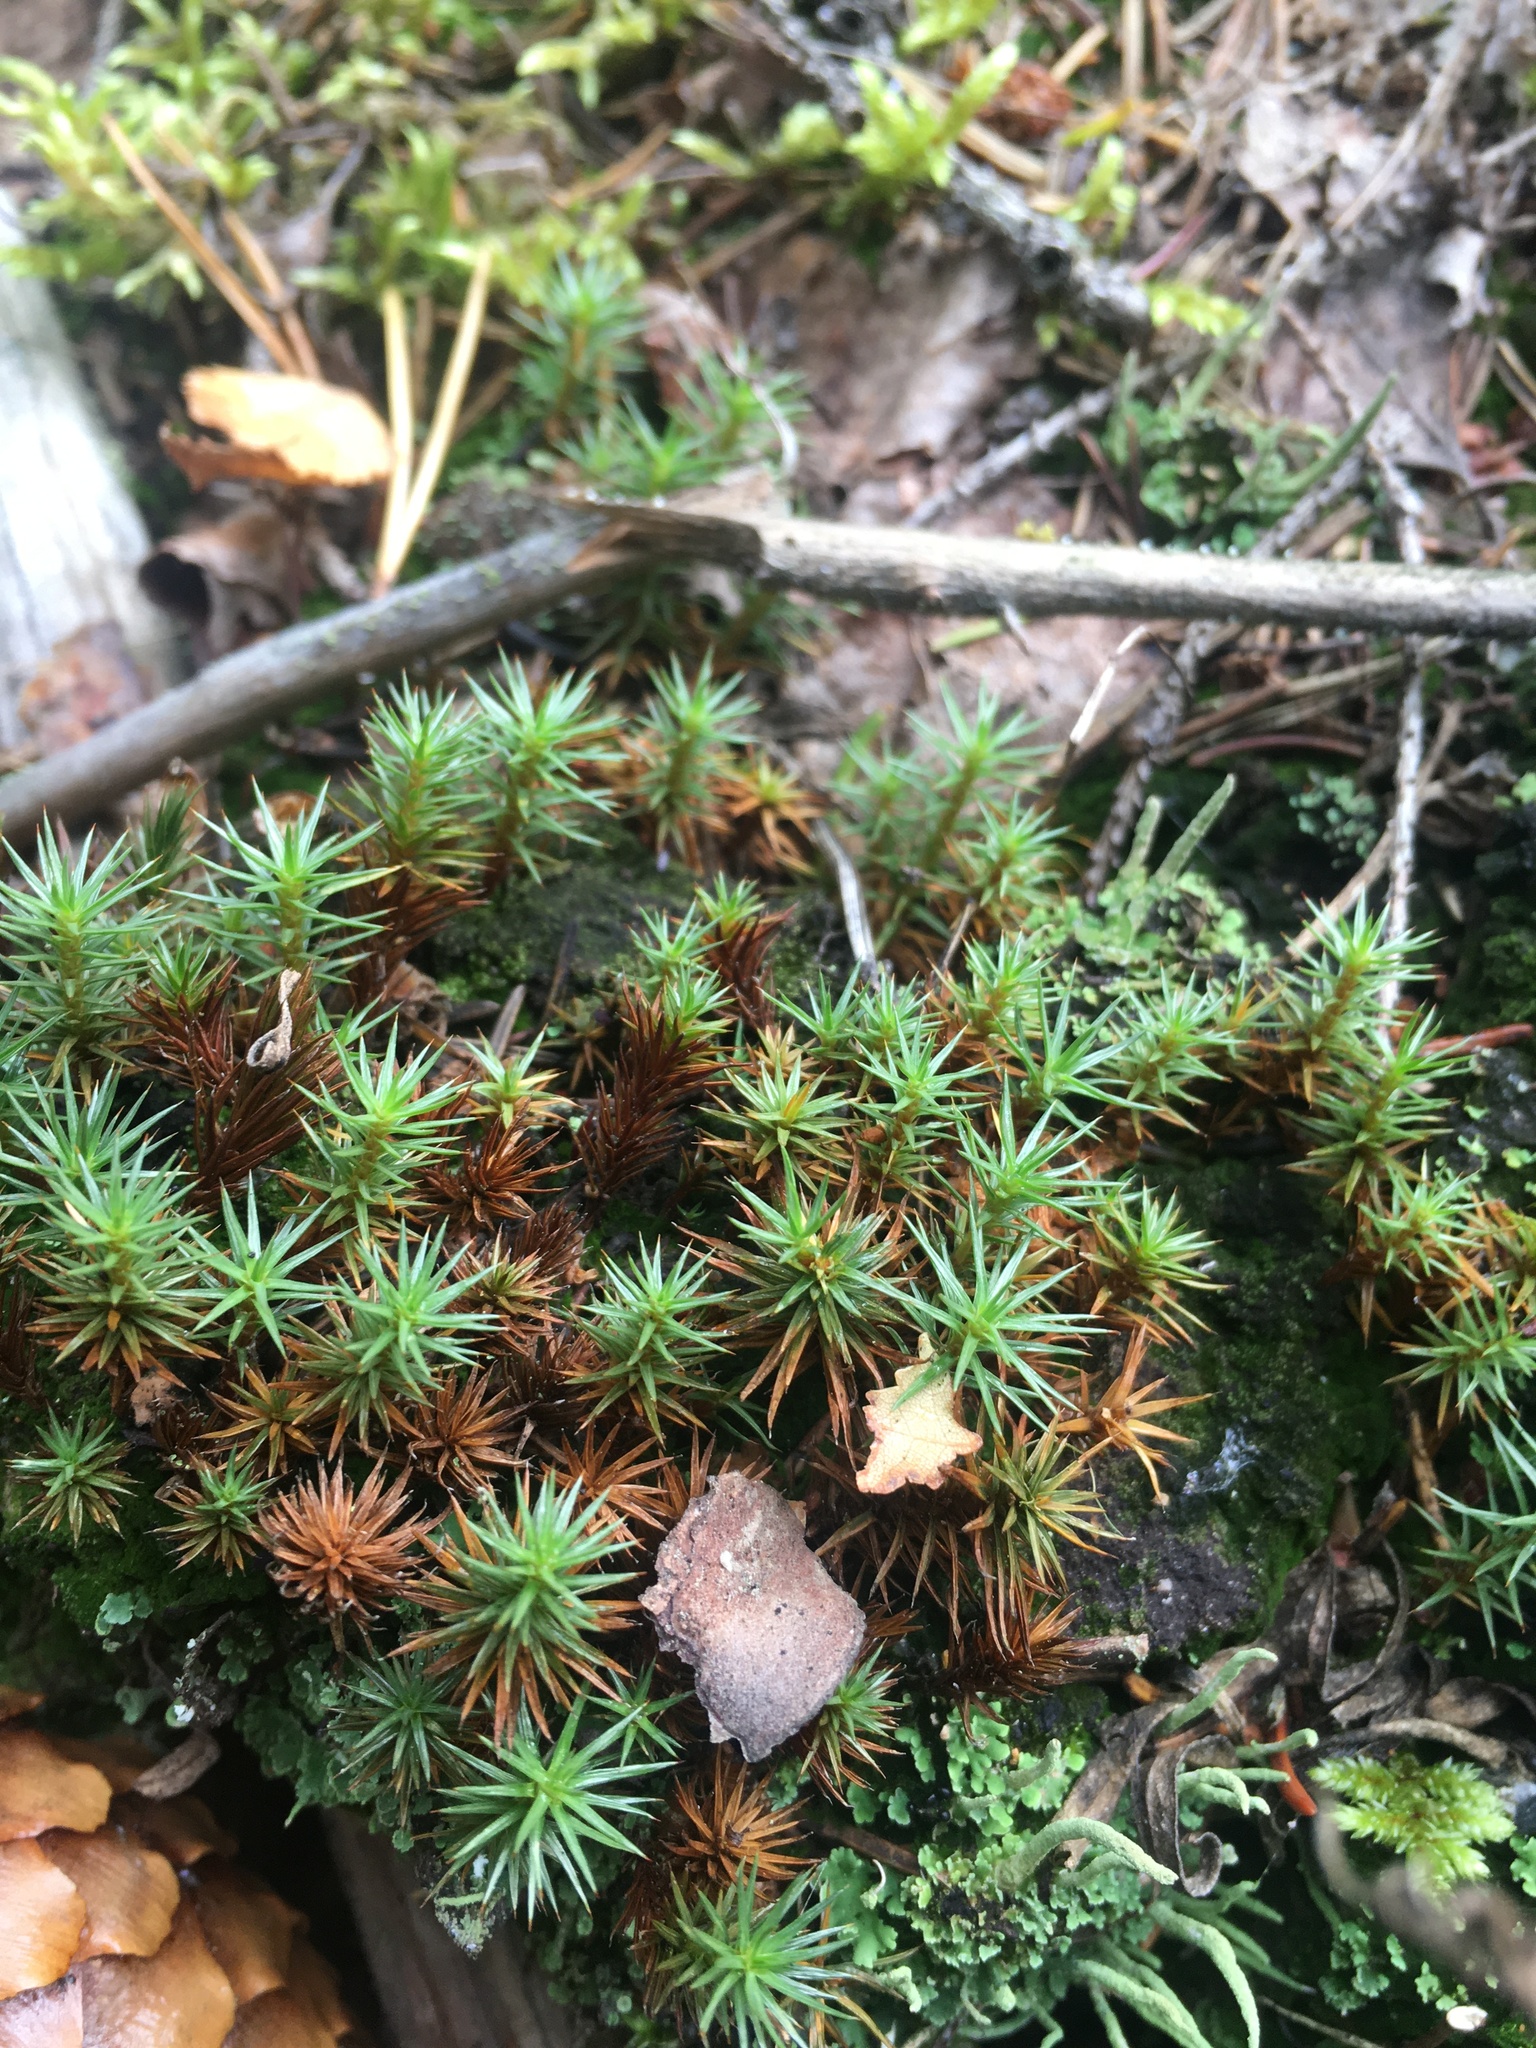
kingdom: Plantae
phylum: Bryophyta
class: Polytrichopsida
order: Polytrichales
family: Polytrichaceae
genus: Polytrichum
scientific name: Polytrichum juniperinum
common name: Juniper haircap moss
